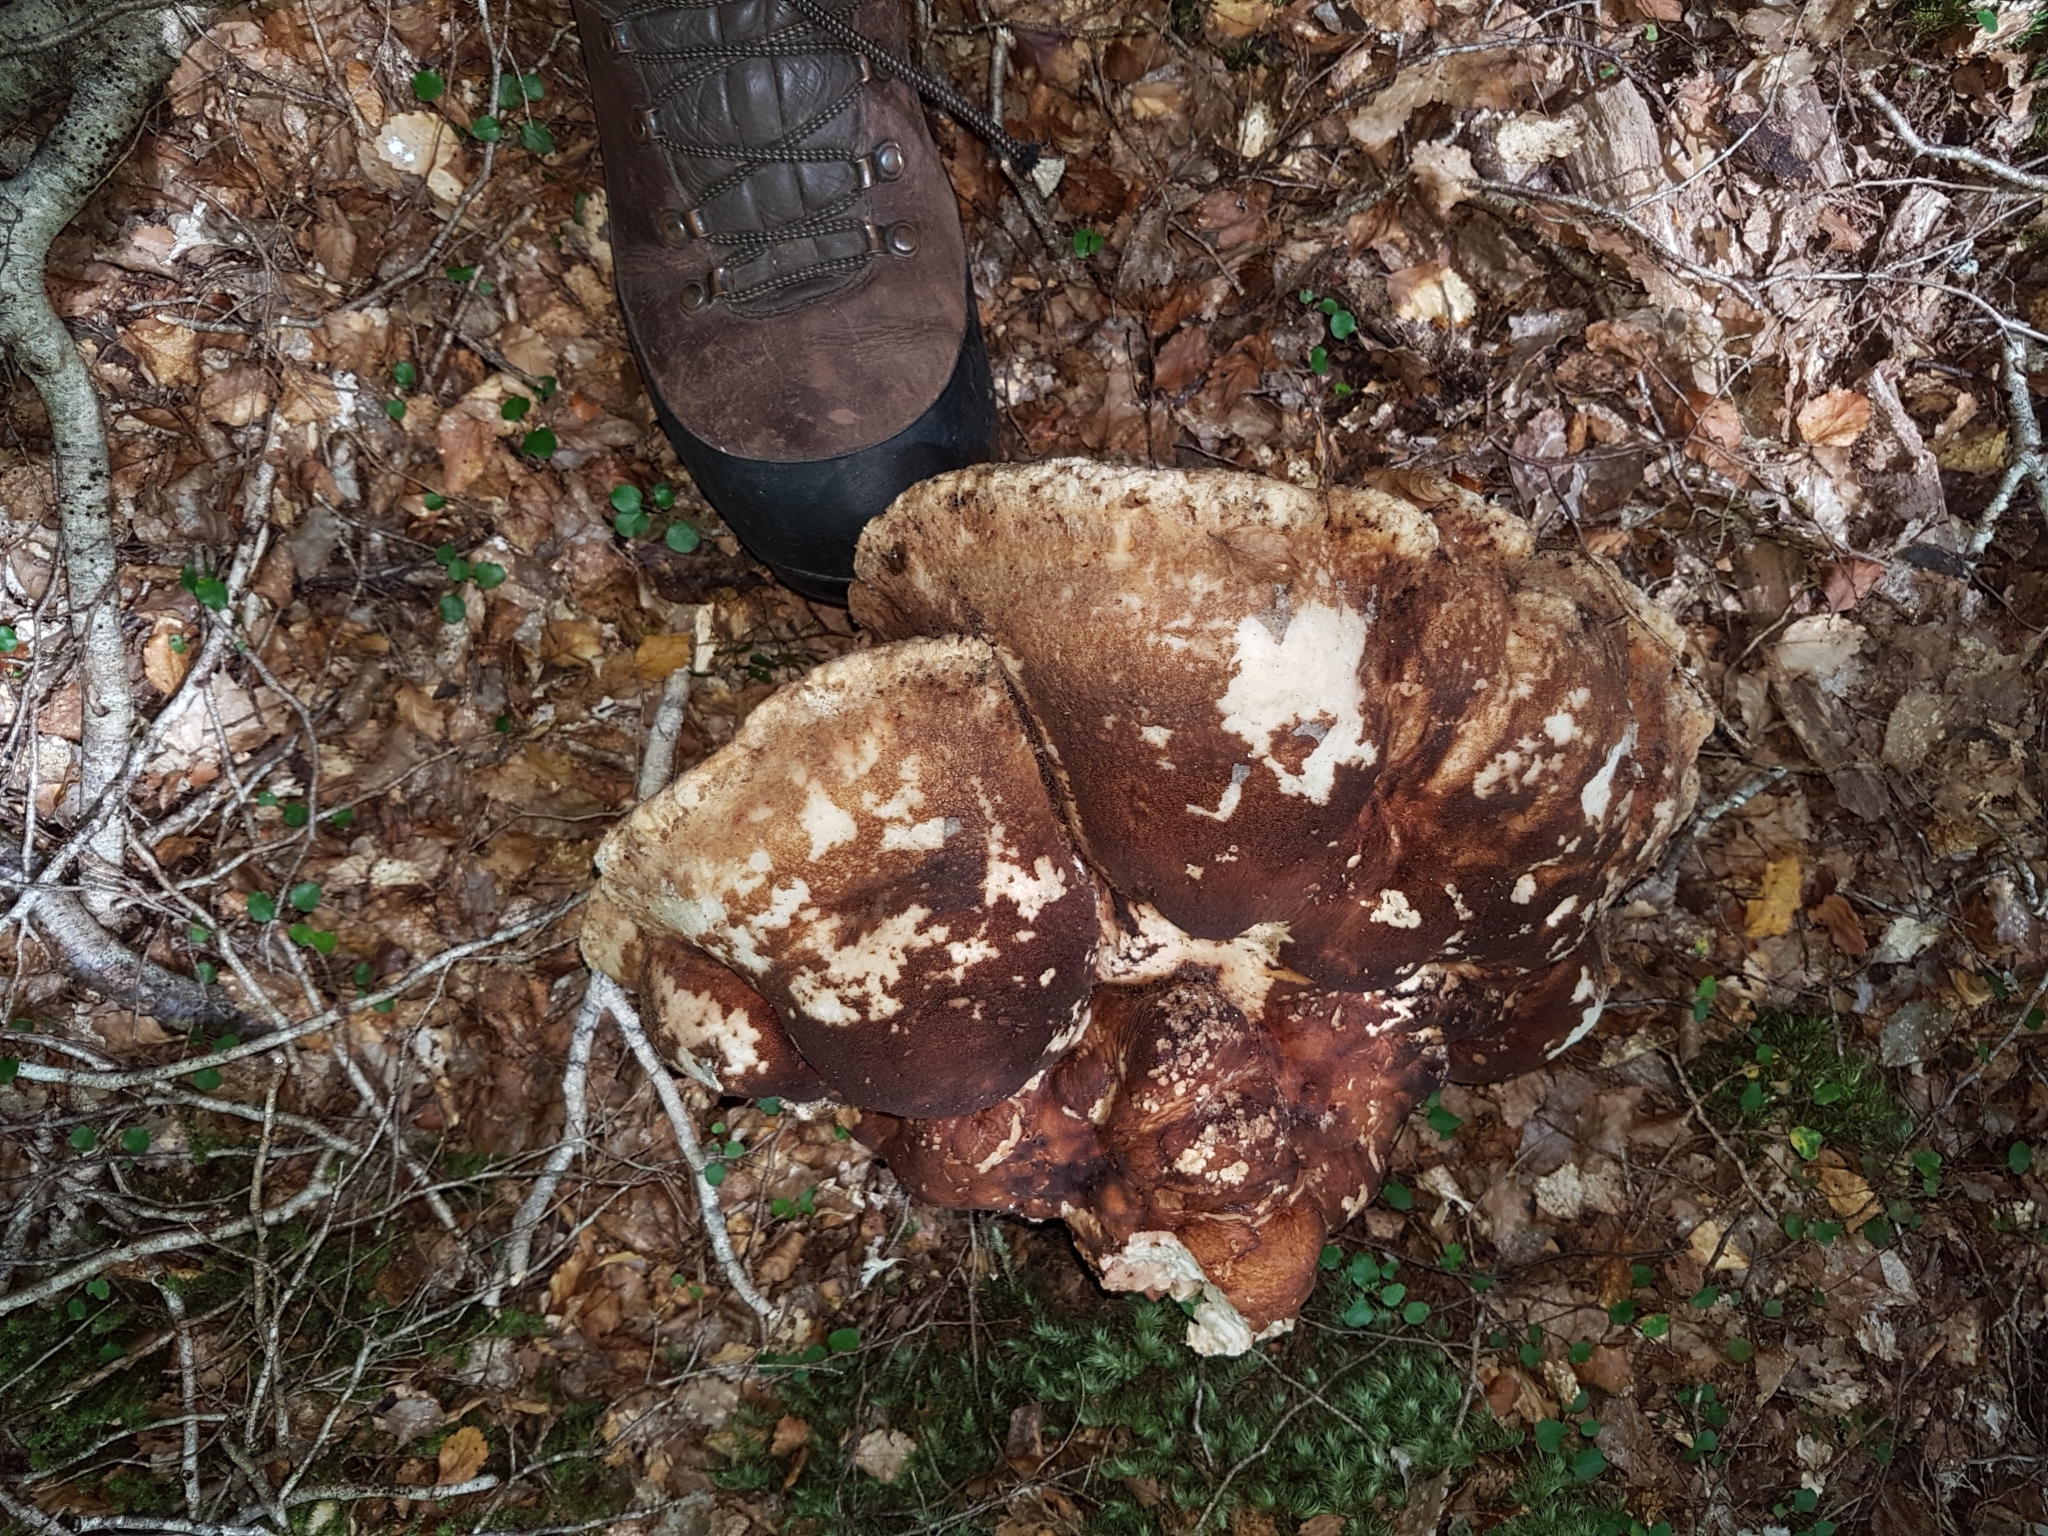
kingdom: Fungi
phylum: Basidiomycota
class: Agaricomycetes
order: Polyporales
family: Laetiporaceae
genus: Laetiporus
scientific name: Laetiporus portentosus
